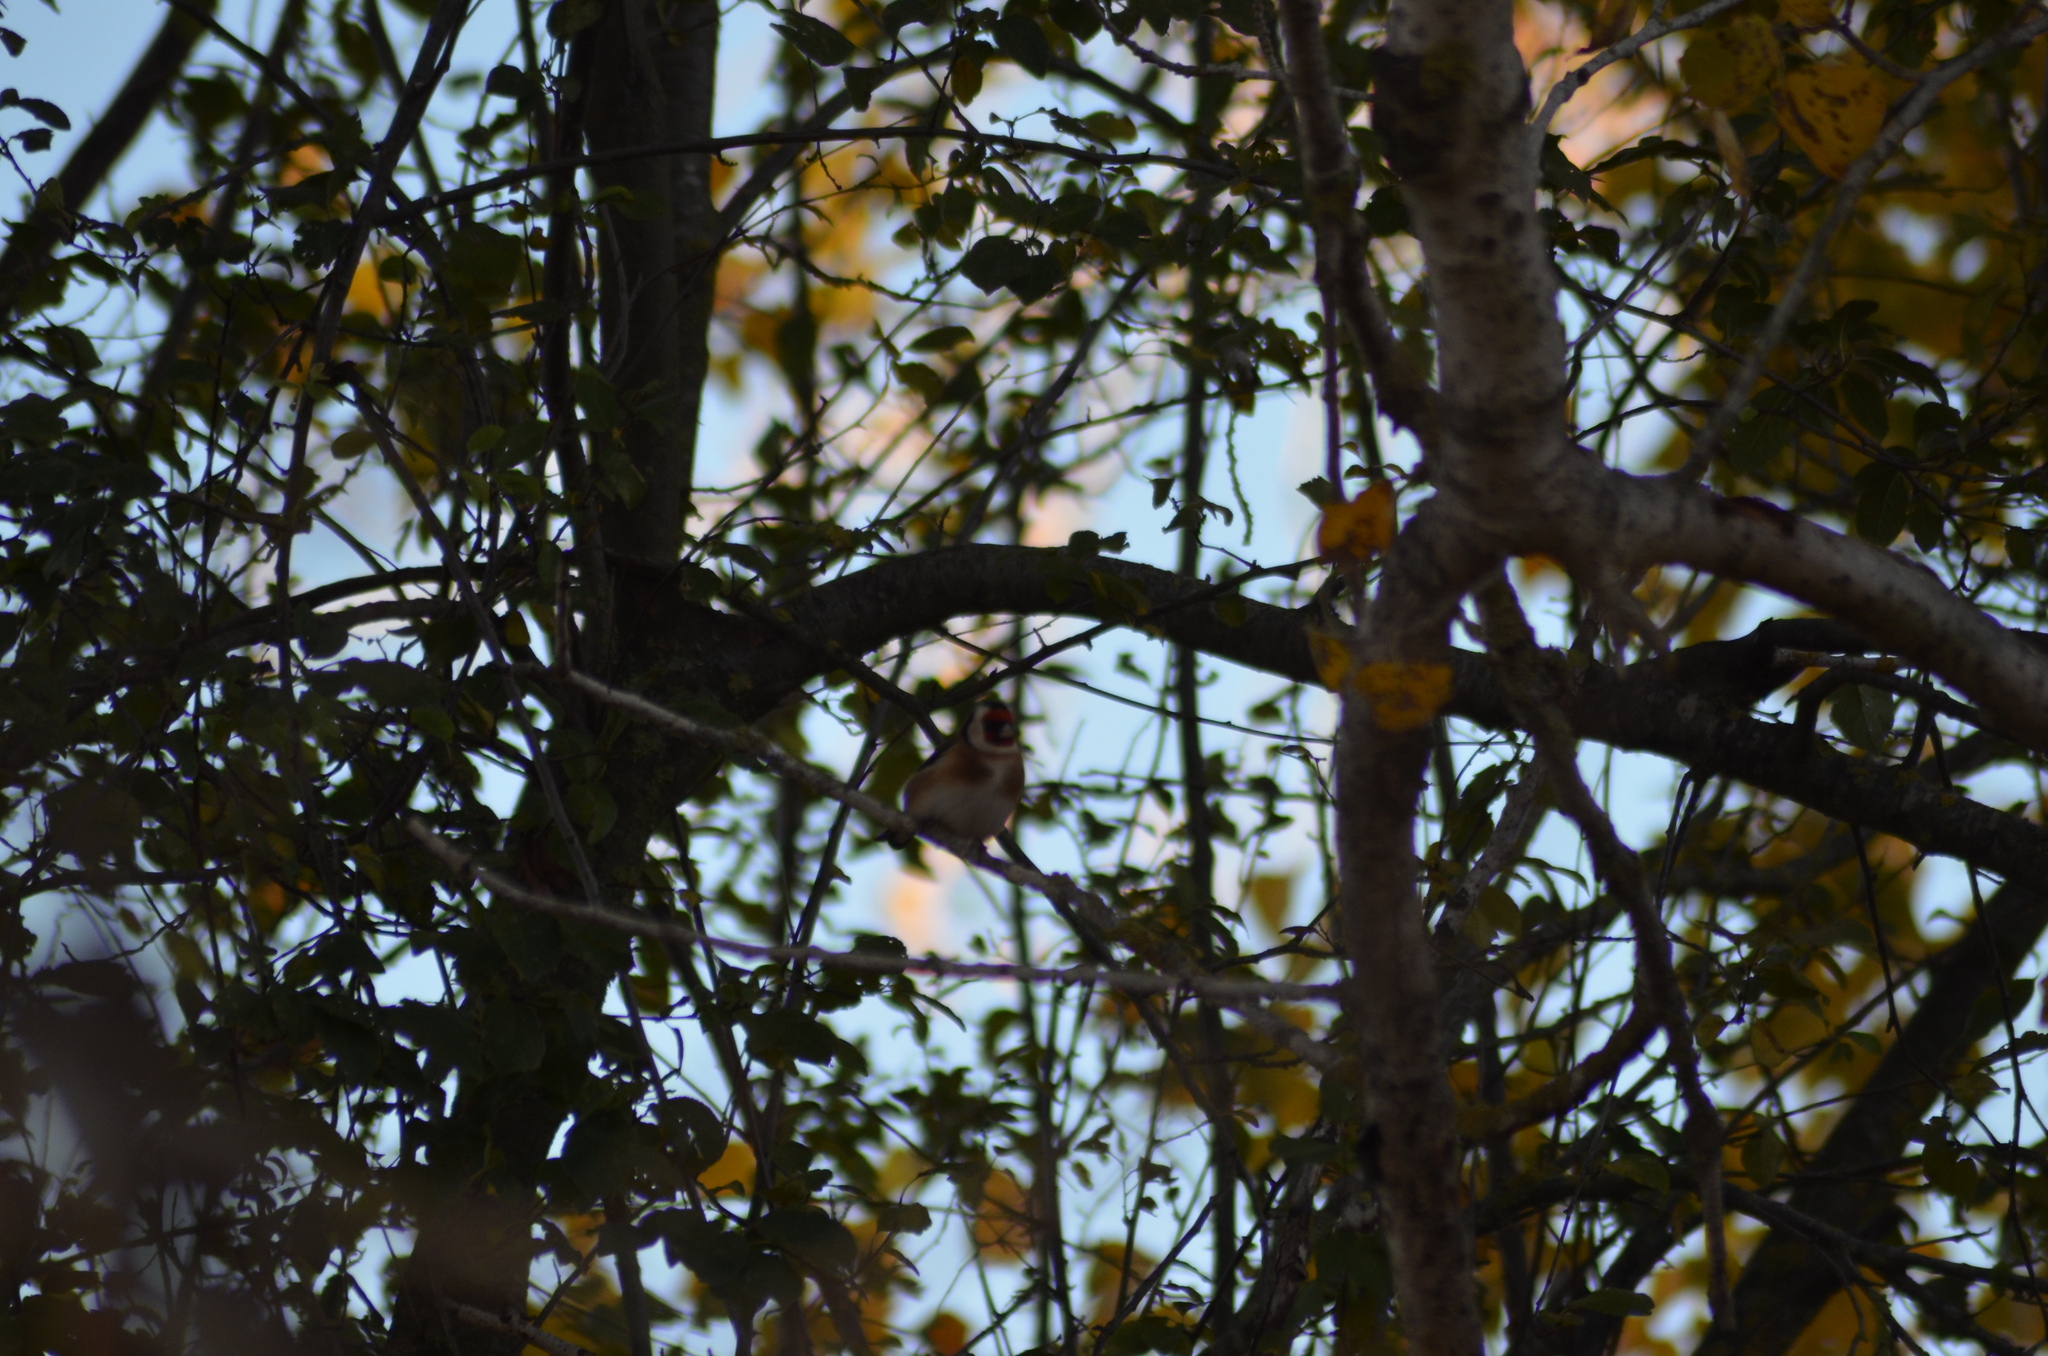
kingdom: Animalia
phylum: Chordata
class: Aves
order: Passeriformes
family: Fringillidae
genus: Carduelis
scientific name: Carduelis carduelis
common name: European goldfinch
